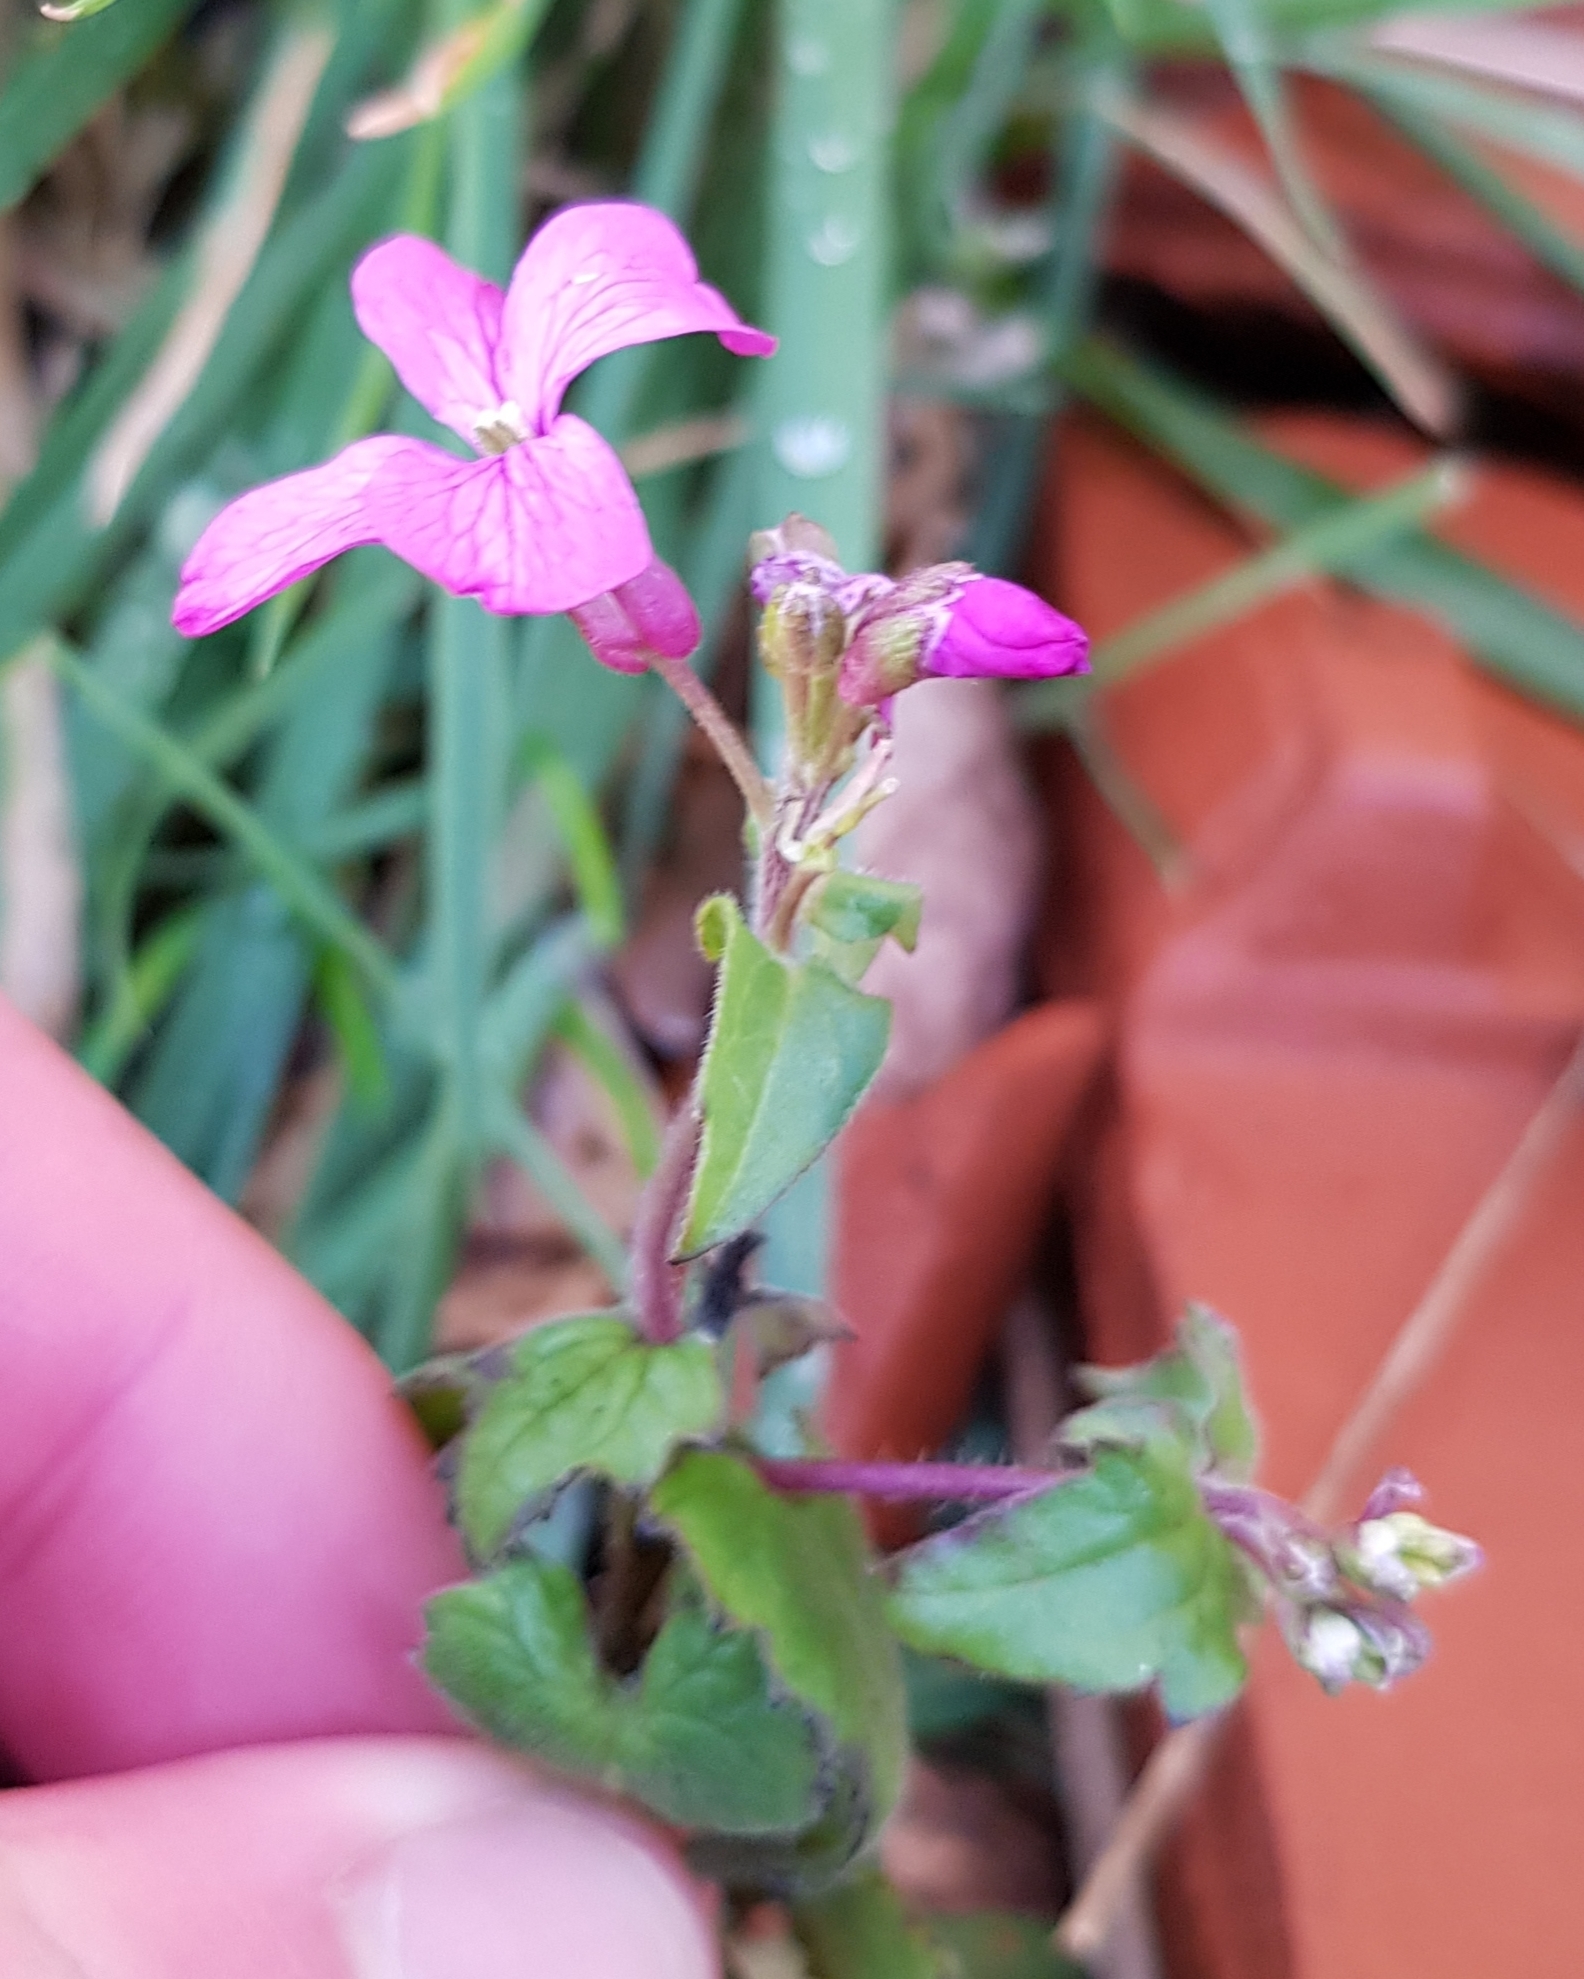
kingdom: Plantae
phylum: Tracheophyta
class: Magnoliopsida
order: Brassicales
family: Brassicaceae
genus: Lunaria
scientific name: Lunaria annua
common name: Honesty
